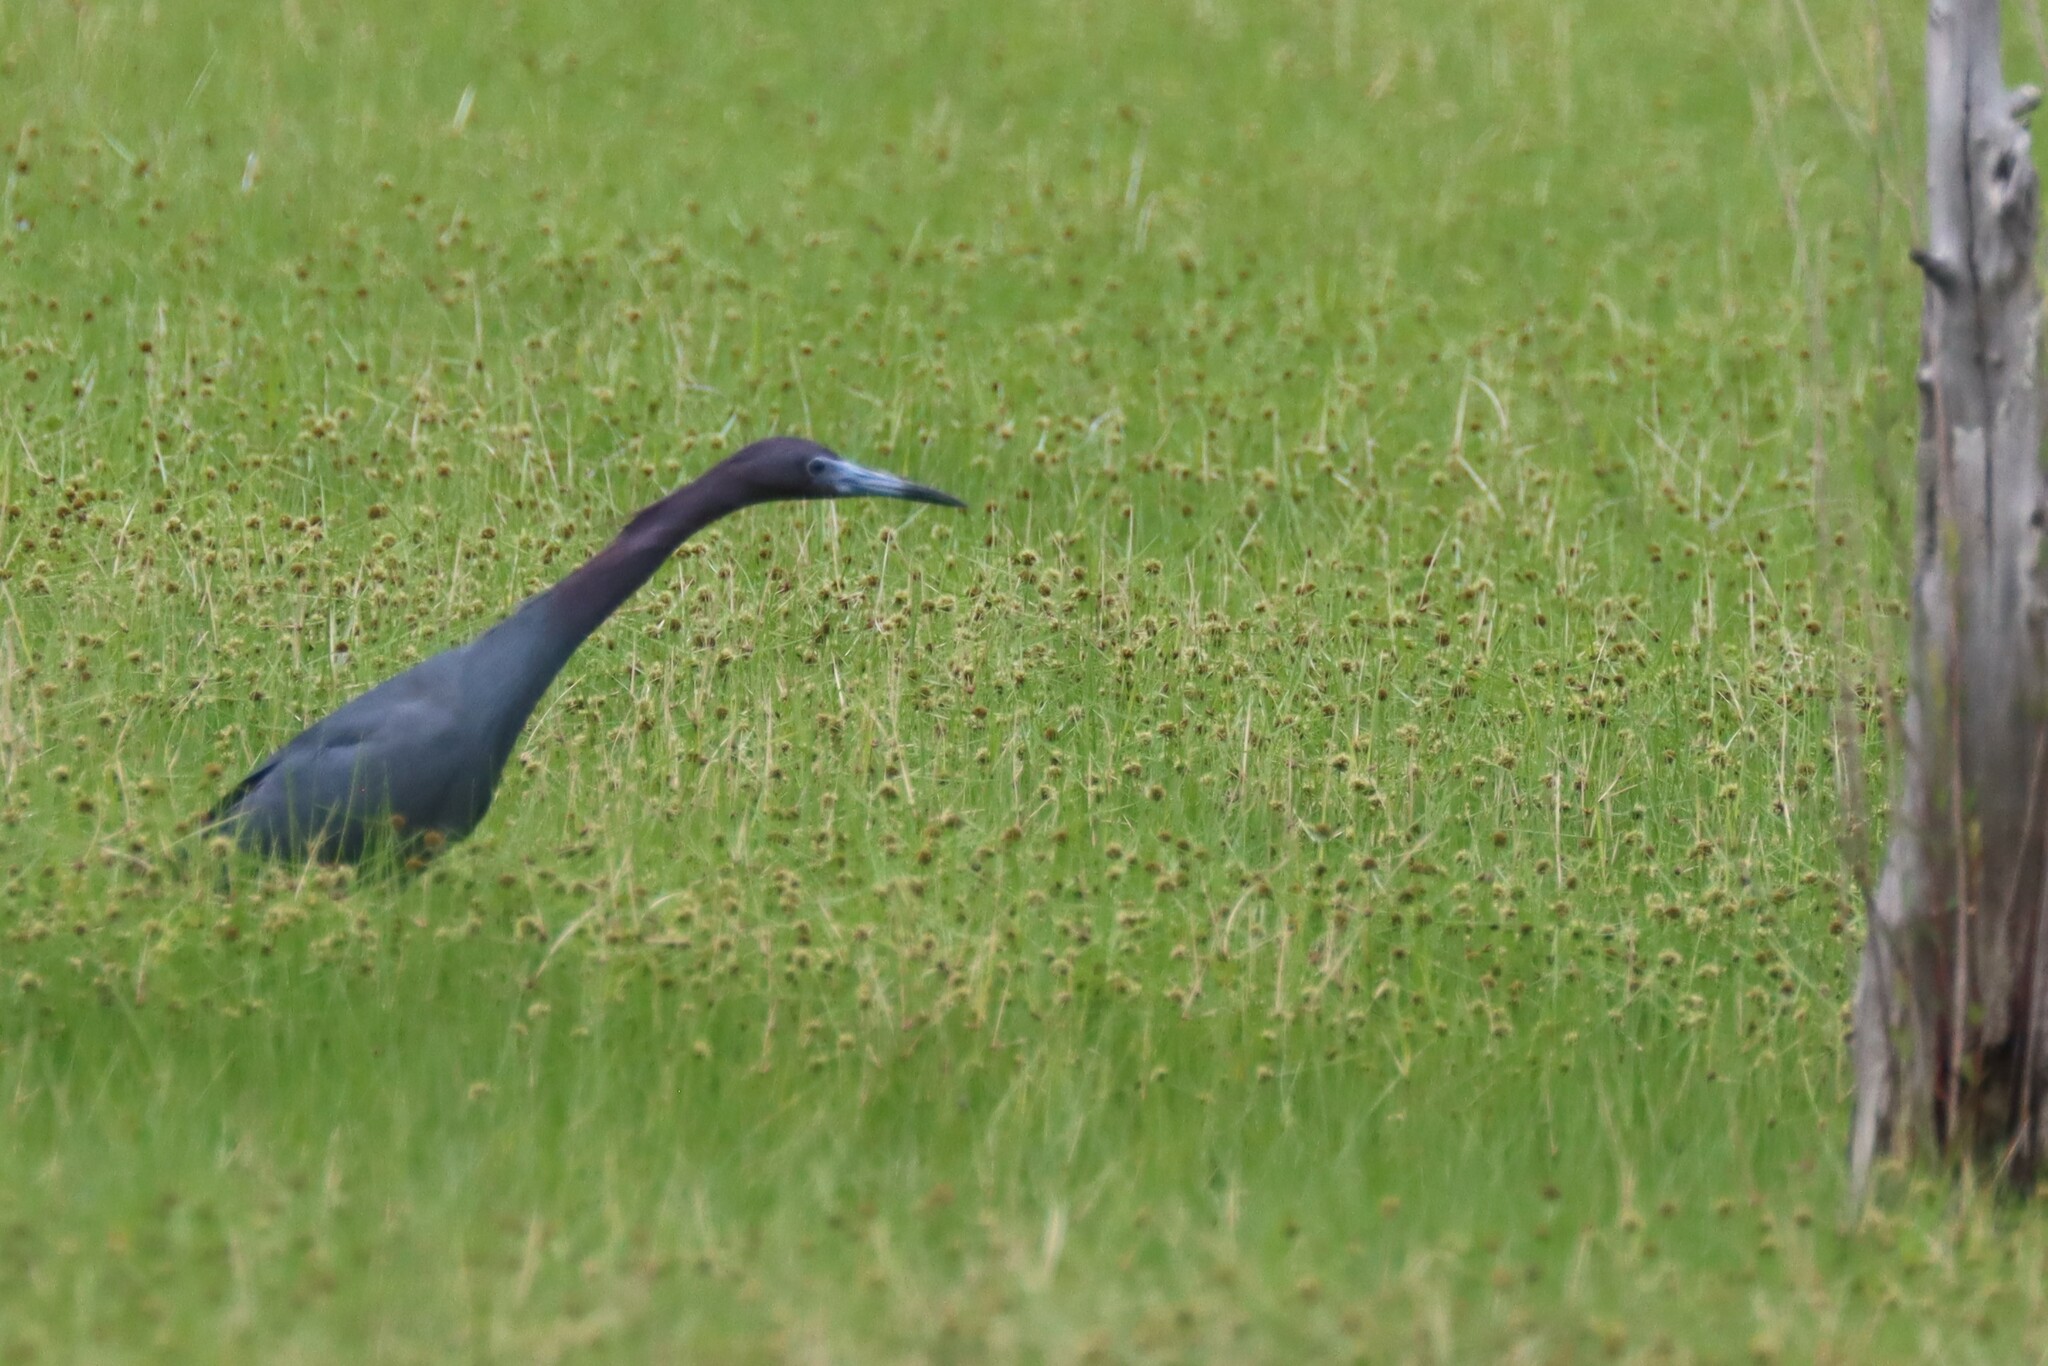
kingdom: Animalia
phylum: Chordata
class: Aves
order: Pelecaniformes
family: Ardeidae
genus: Egretta
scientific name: Egretta caerulea
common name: Little blue heron
